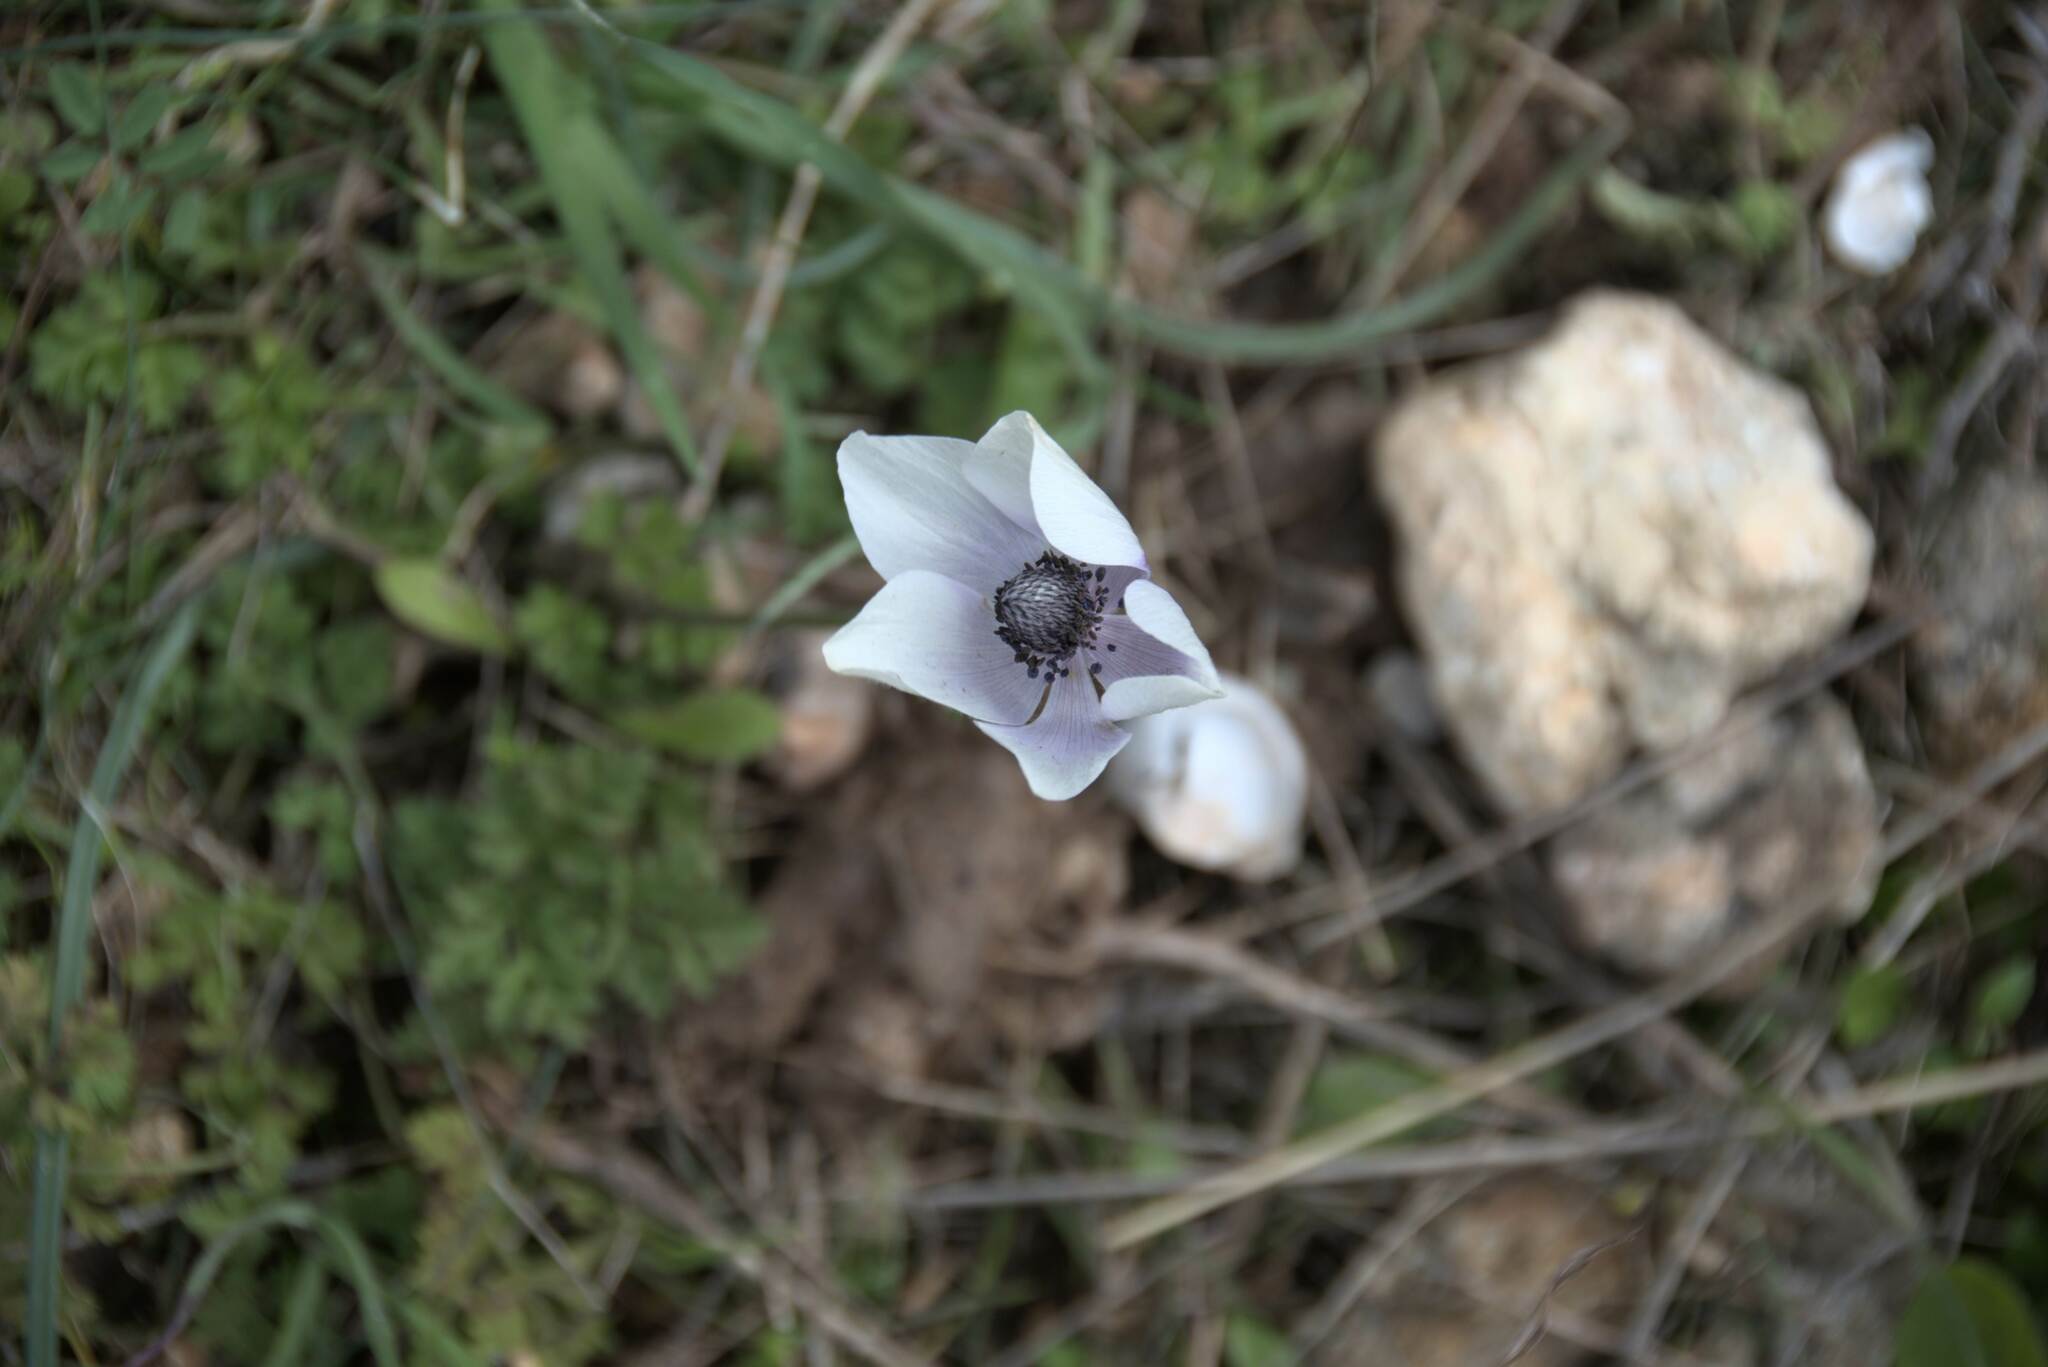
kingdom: Plantae
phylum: Tracheophyta
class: Magnoliopsida
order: Ranunculales
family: Ranunculaceae
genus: Anemone
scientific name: Anemone coronaria
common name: Poppy anemone
